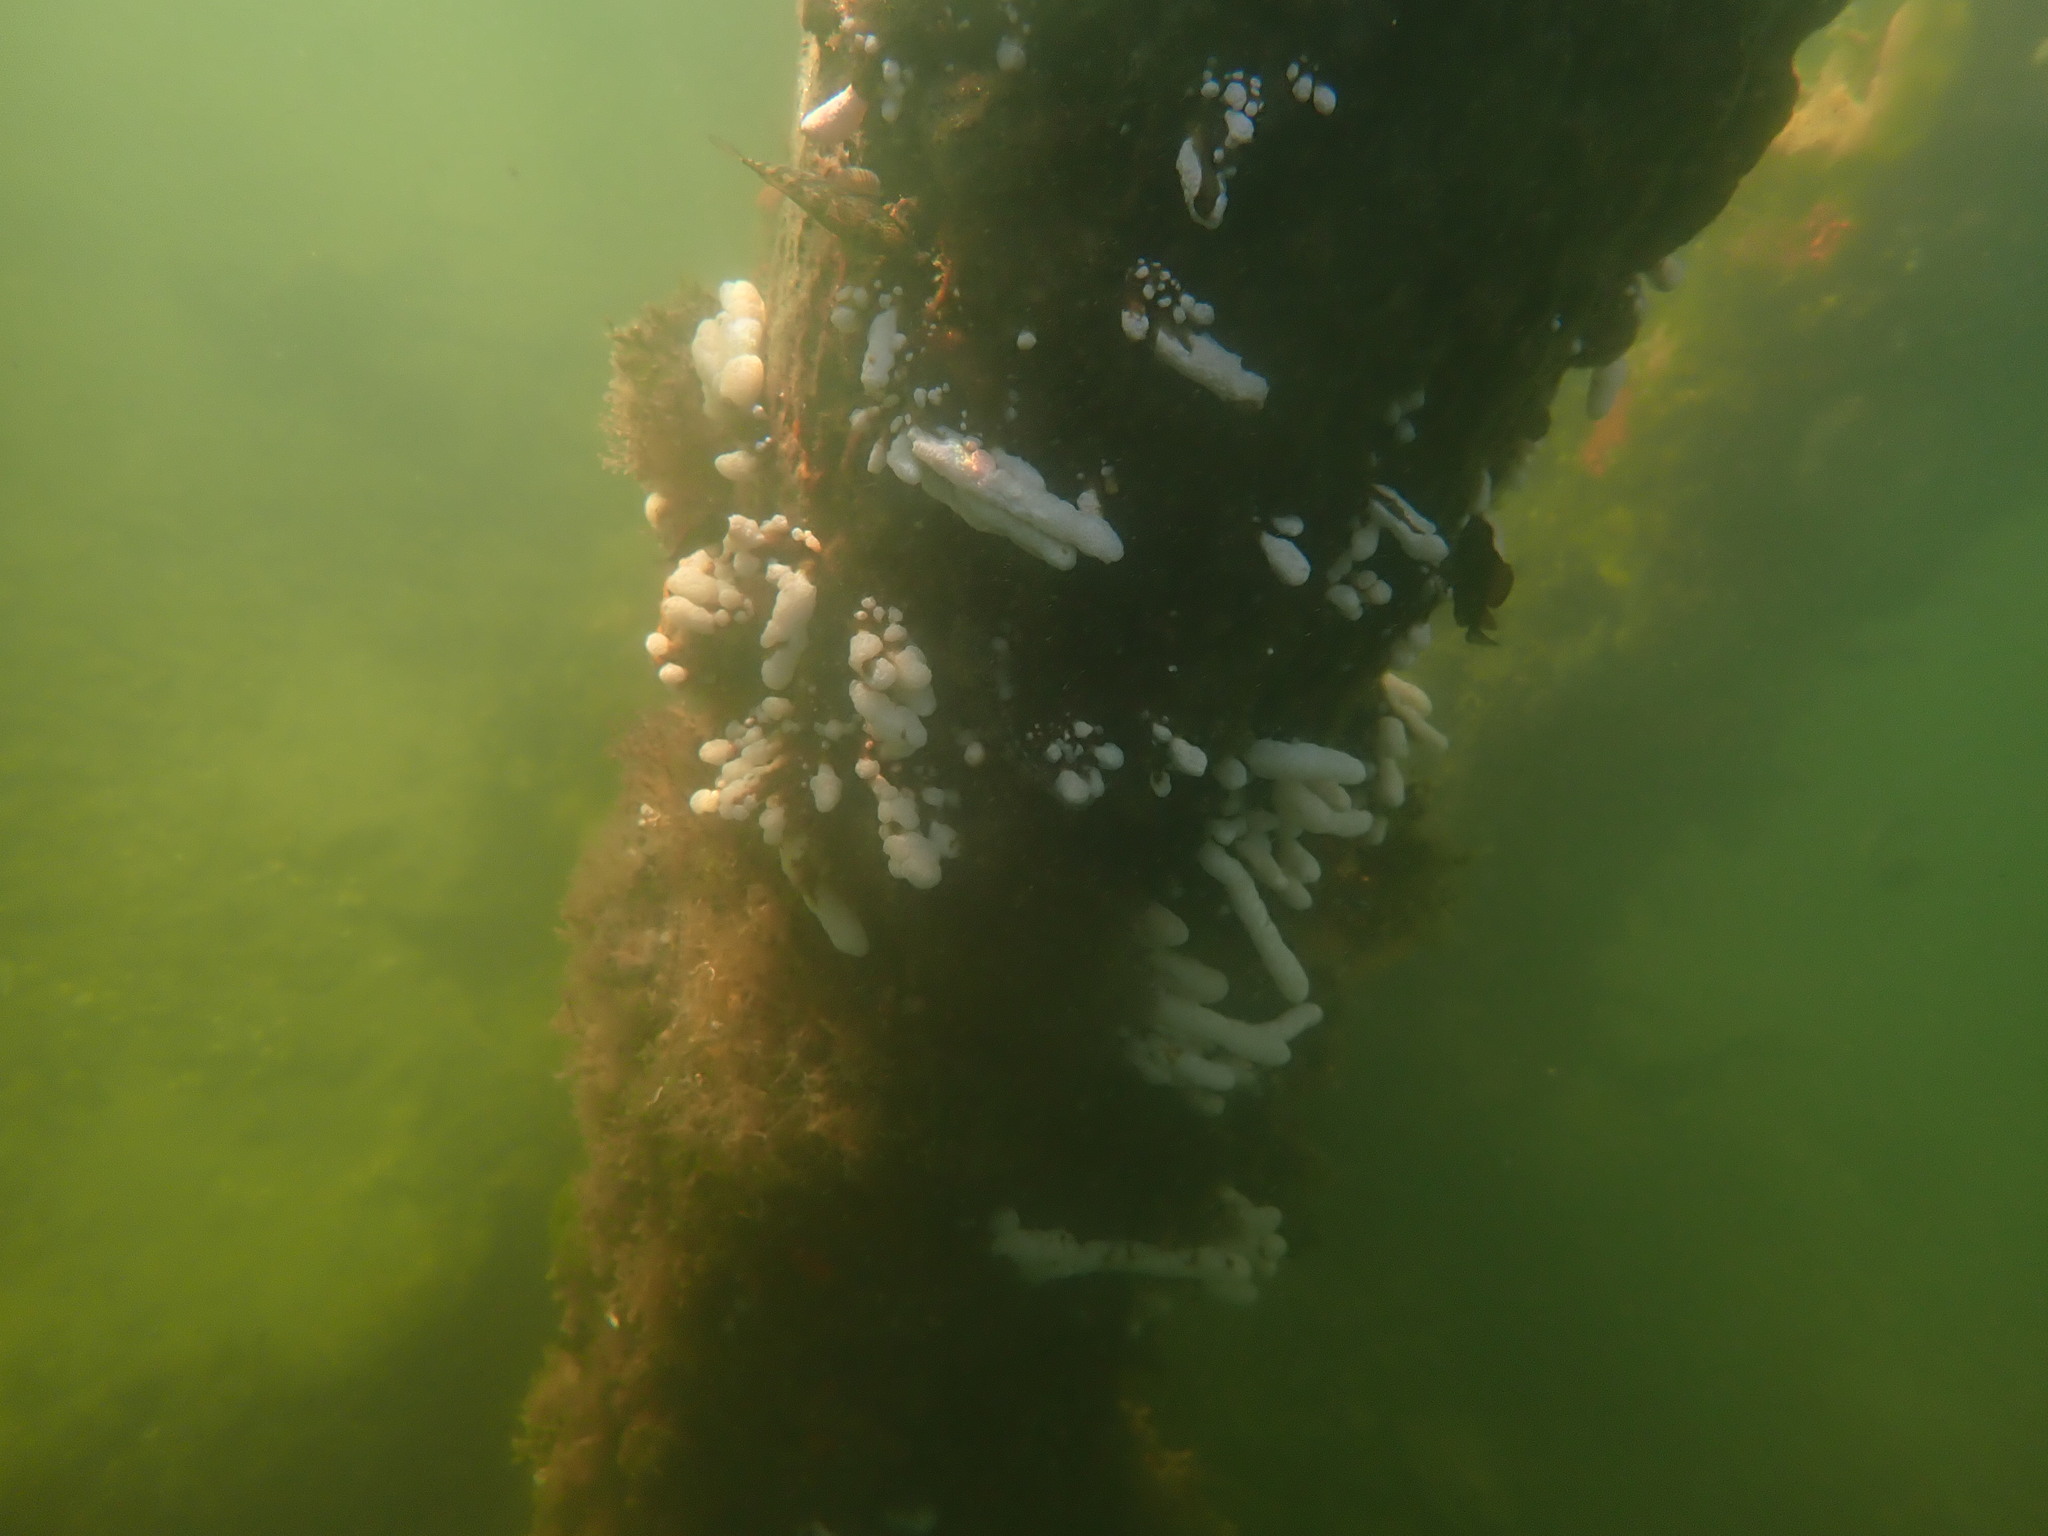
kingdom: Animalia
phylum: Chordata
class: Ascidiacea
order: Aplousobranchia
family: Polycitoridae
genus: Eudistoma
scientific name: Eudistoma elongatum
